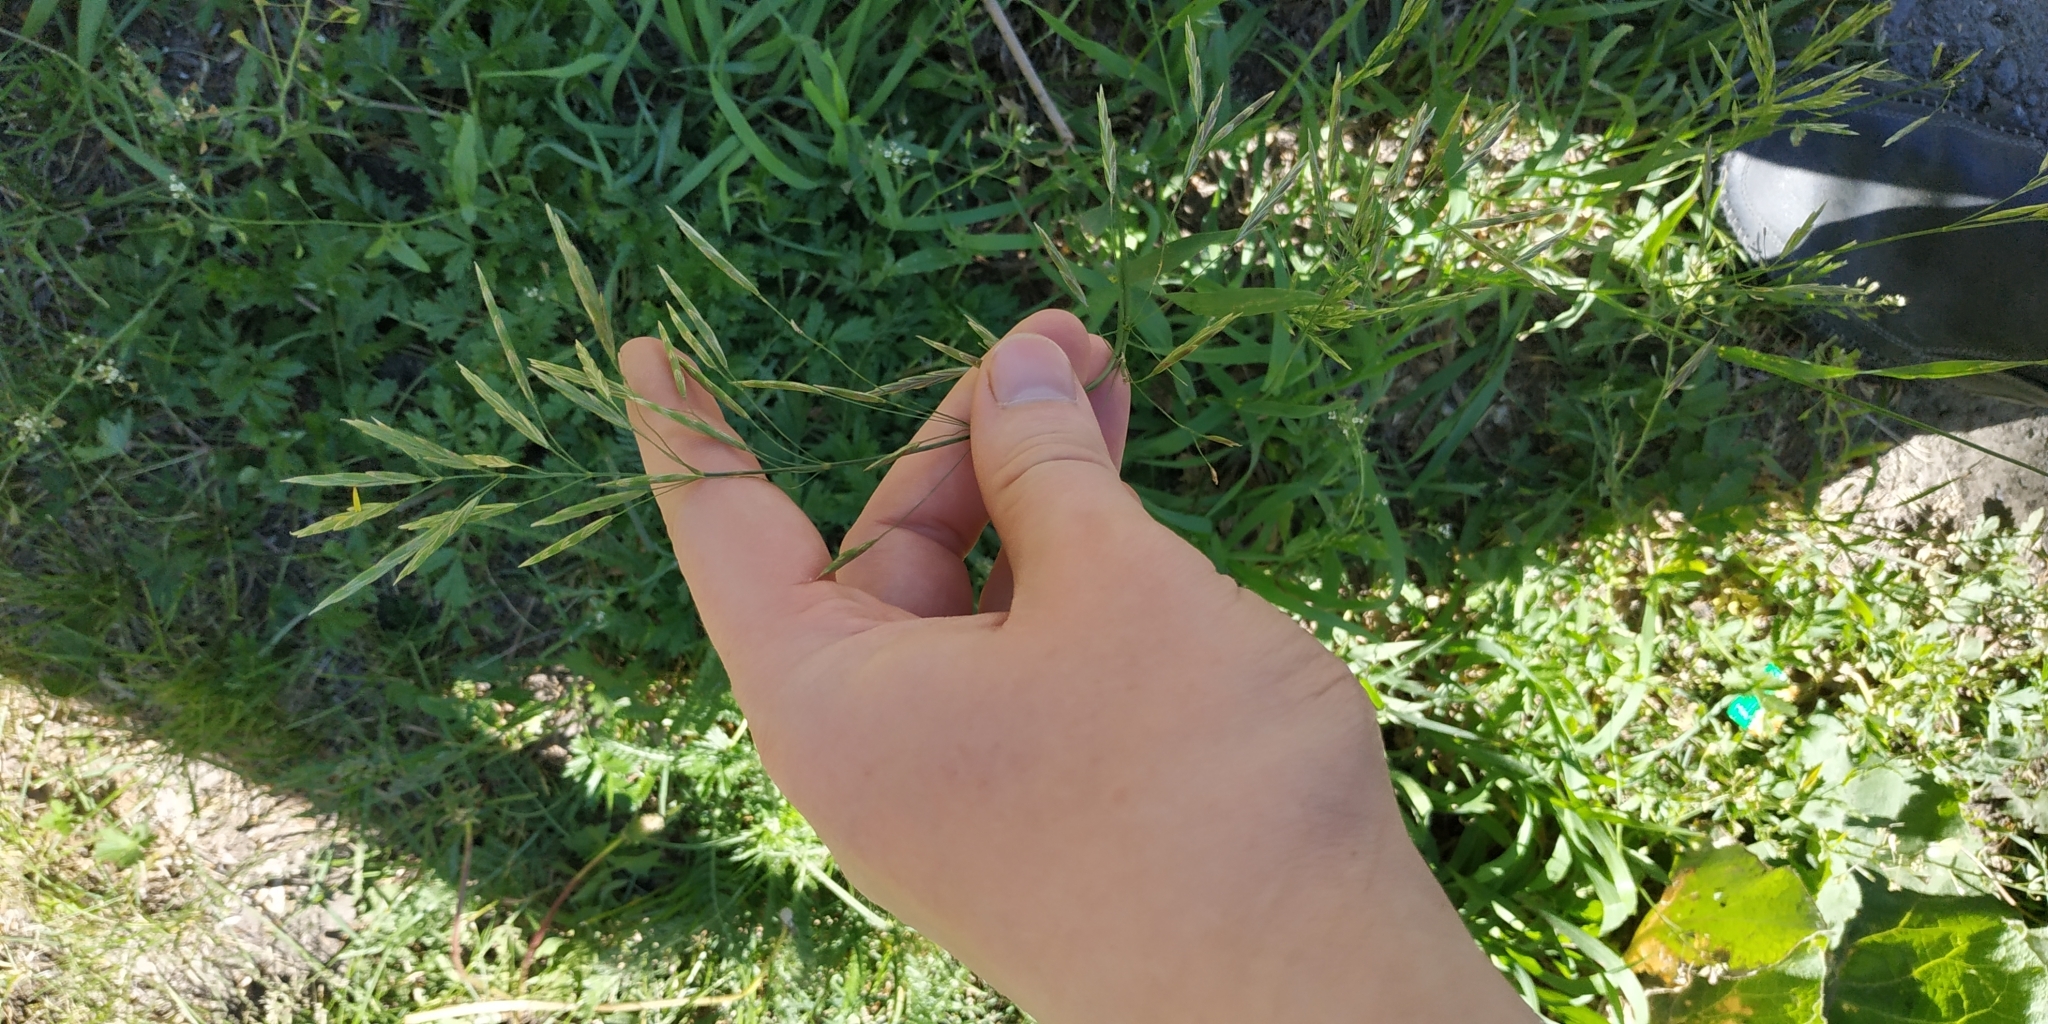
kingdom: Plantae
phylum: Tracheophyta
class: Liliopsida
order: Poales
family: Poaceae
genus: Bromus
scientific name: Bromus inermis
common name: Smooth brome
